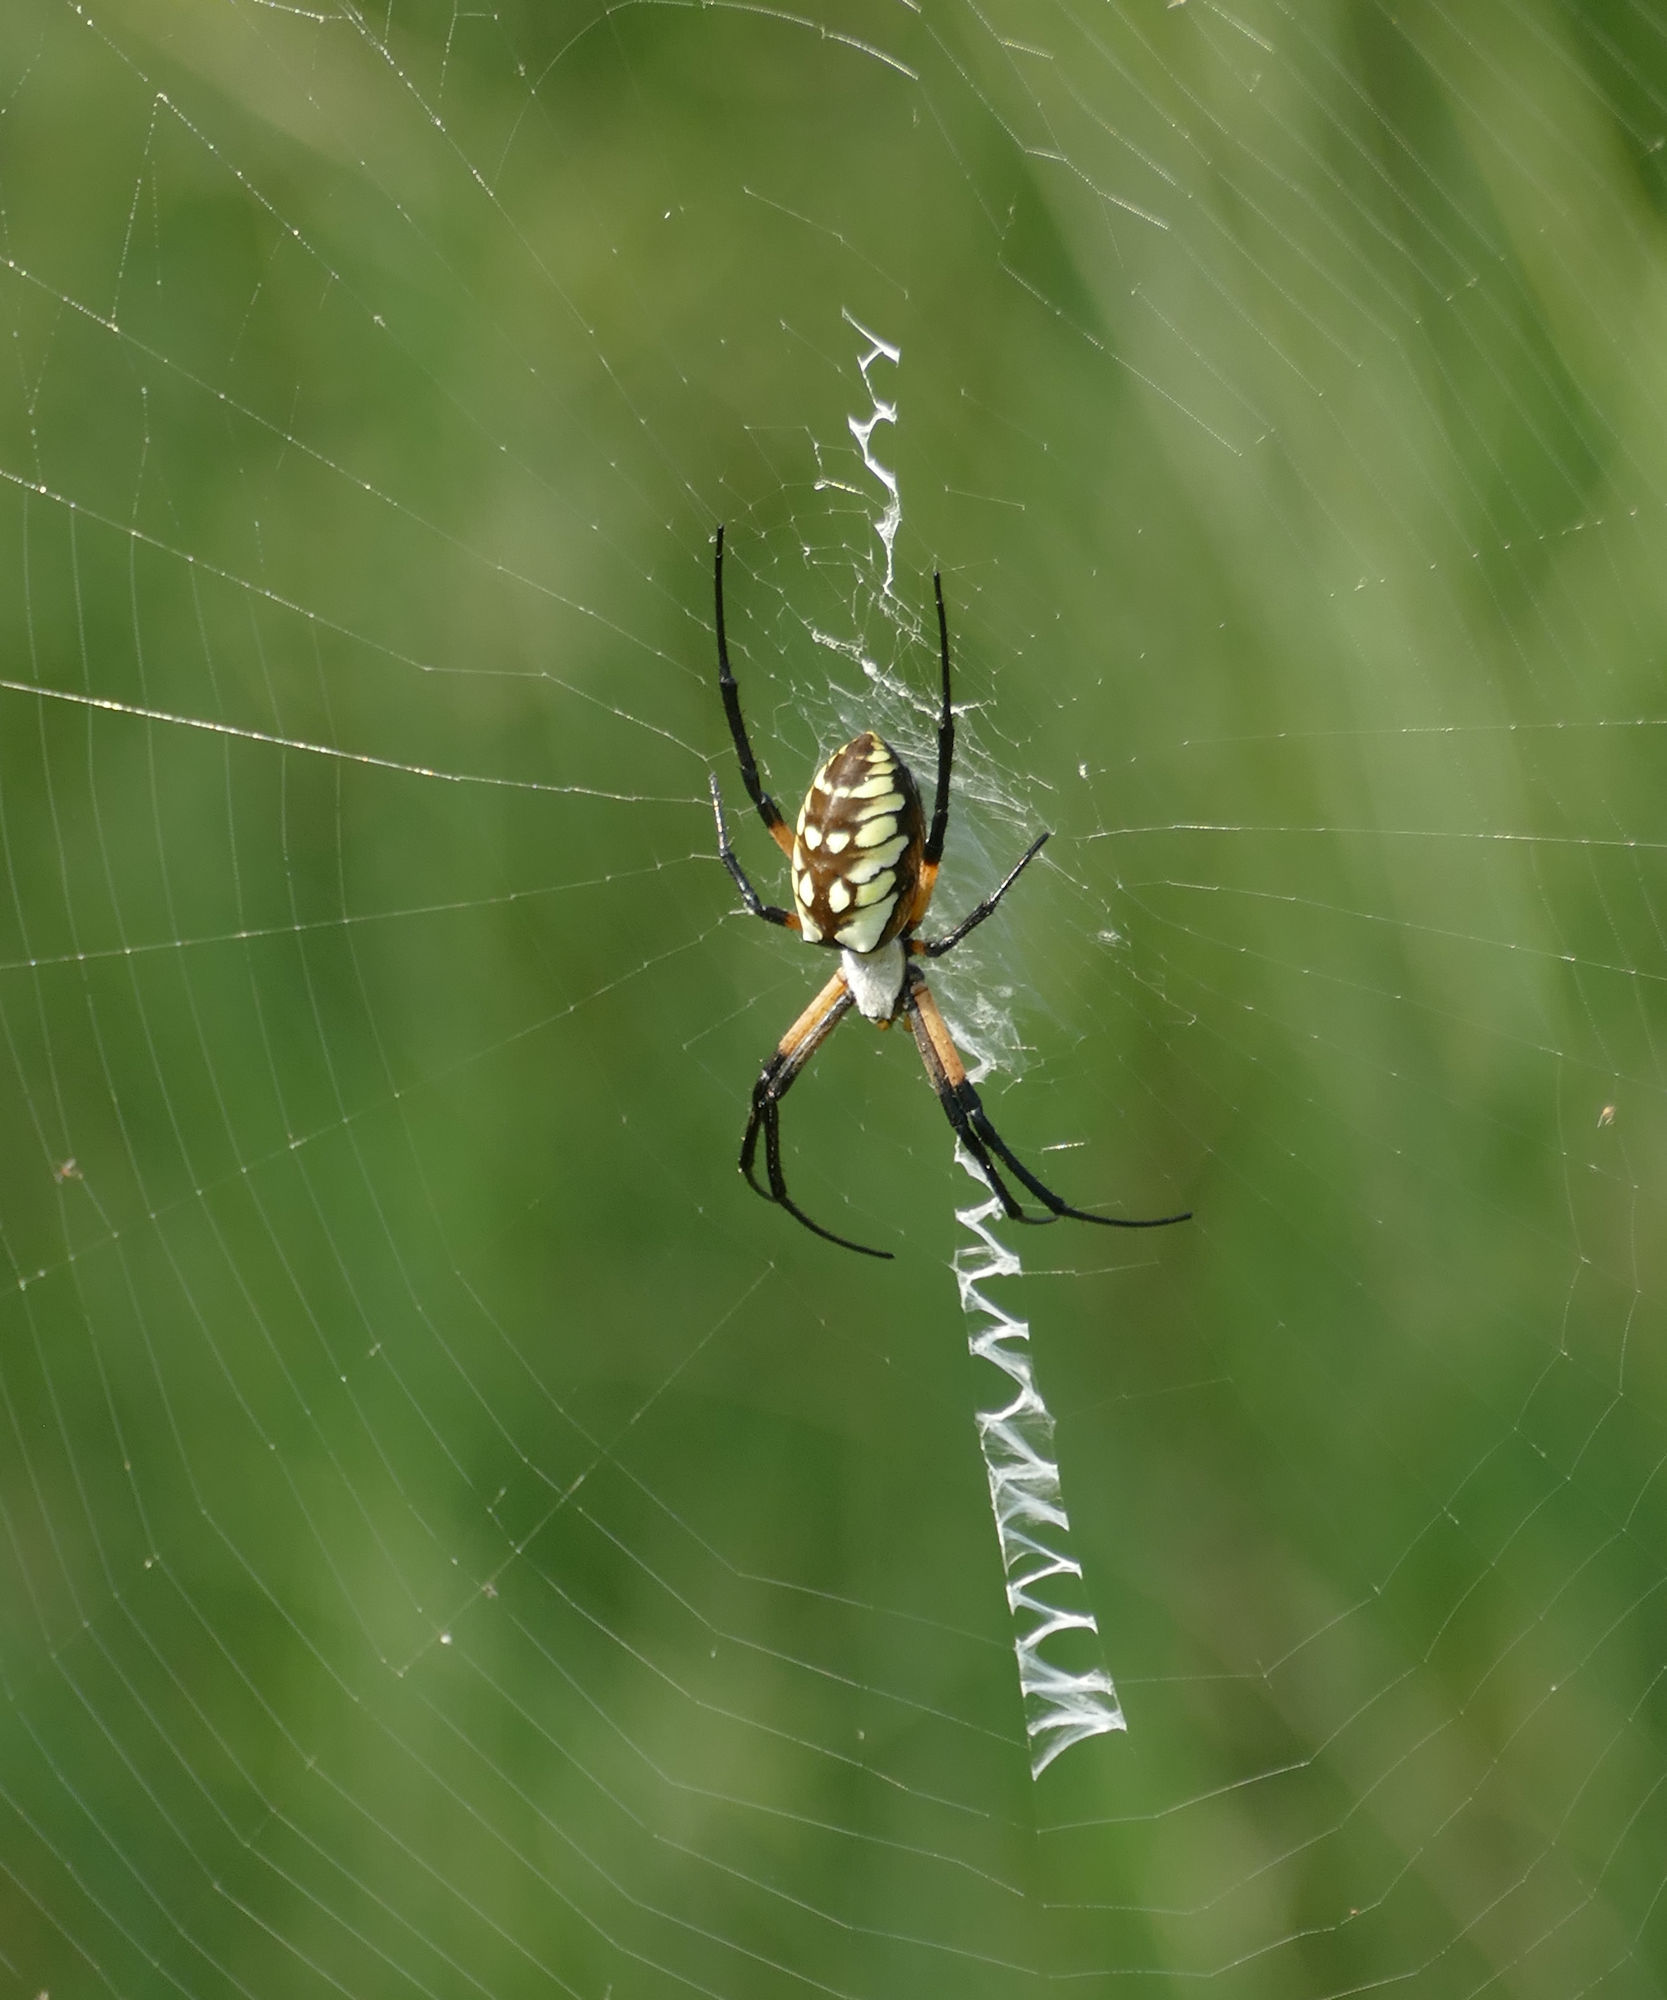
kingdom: Animalia
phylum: Arthropoda
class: Arachnida
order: Araneae
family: Araneidae
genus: Argiope
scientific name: Argiope aurantia
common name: Orb weavers
